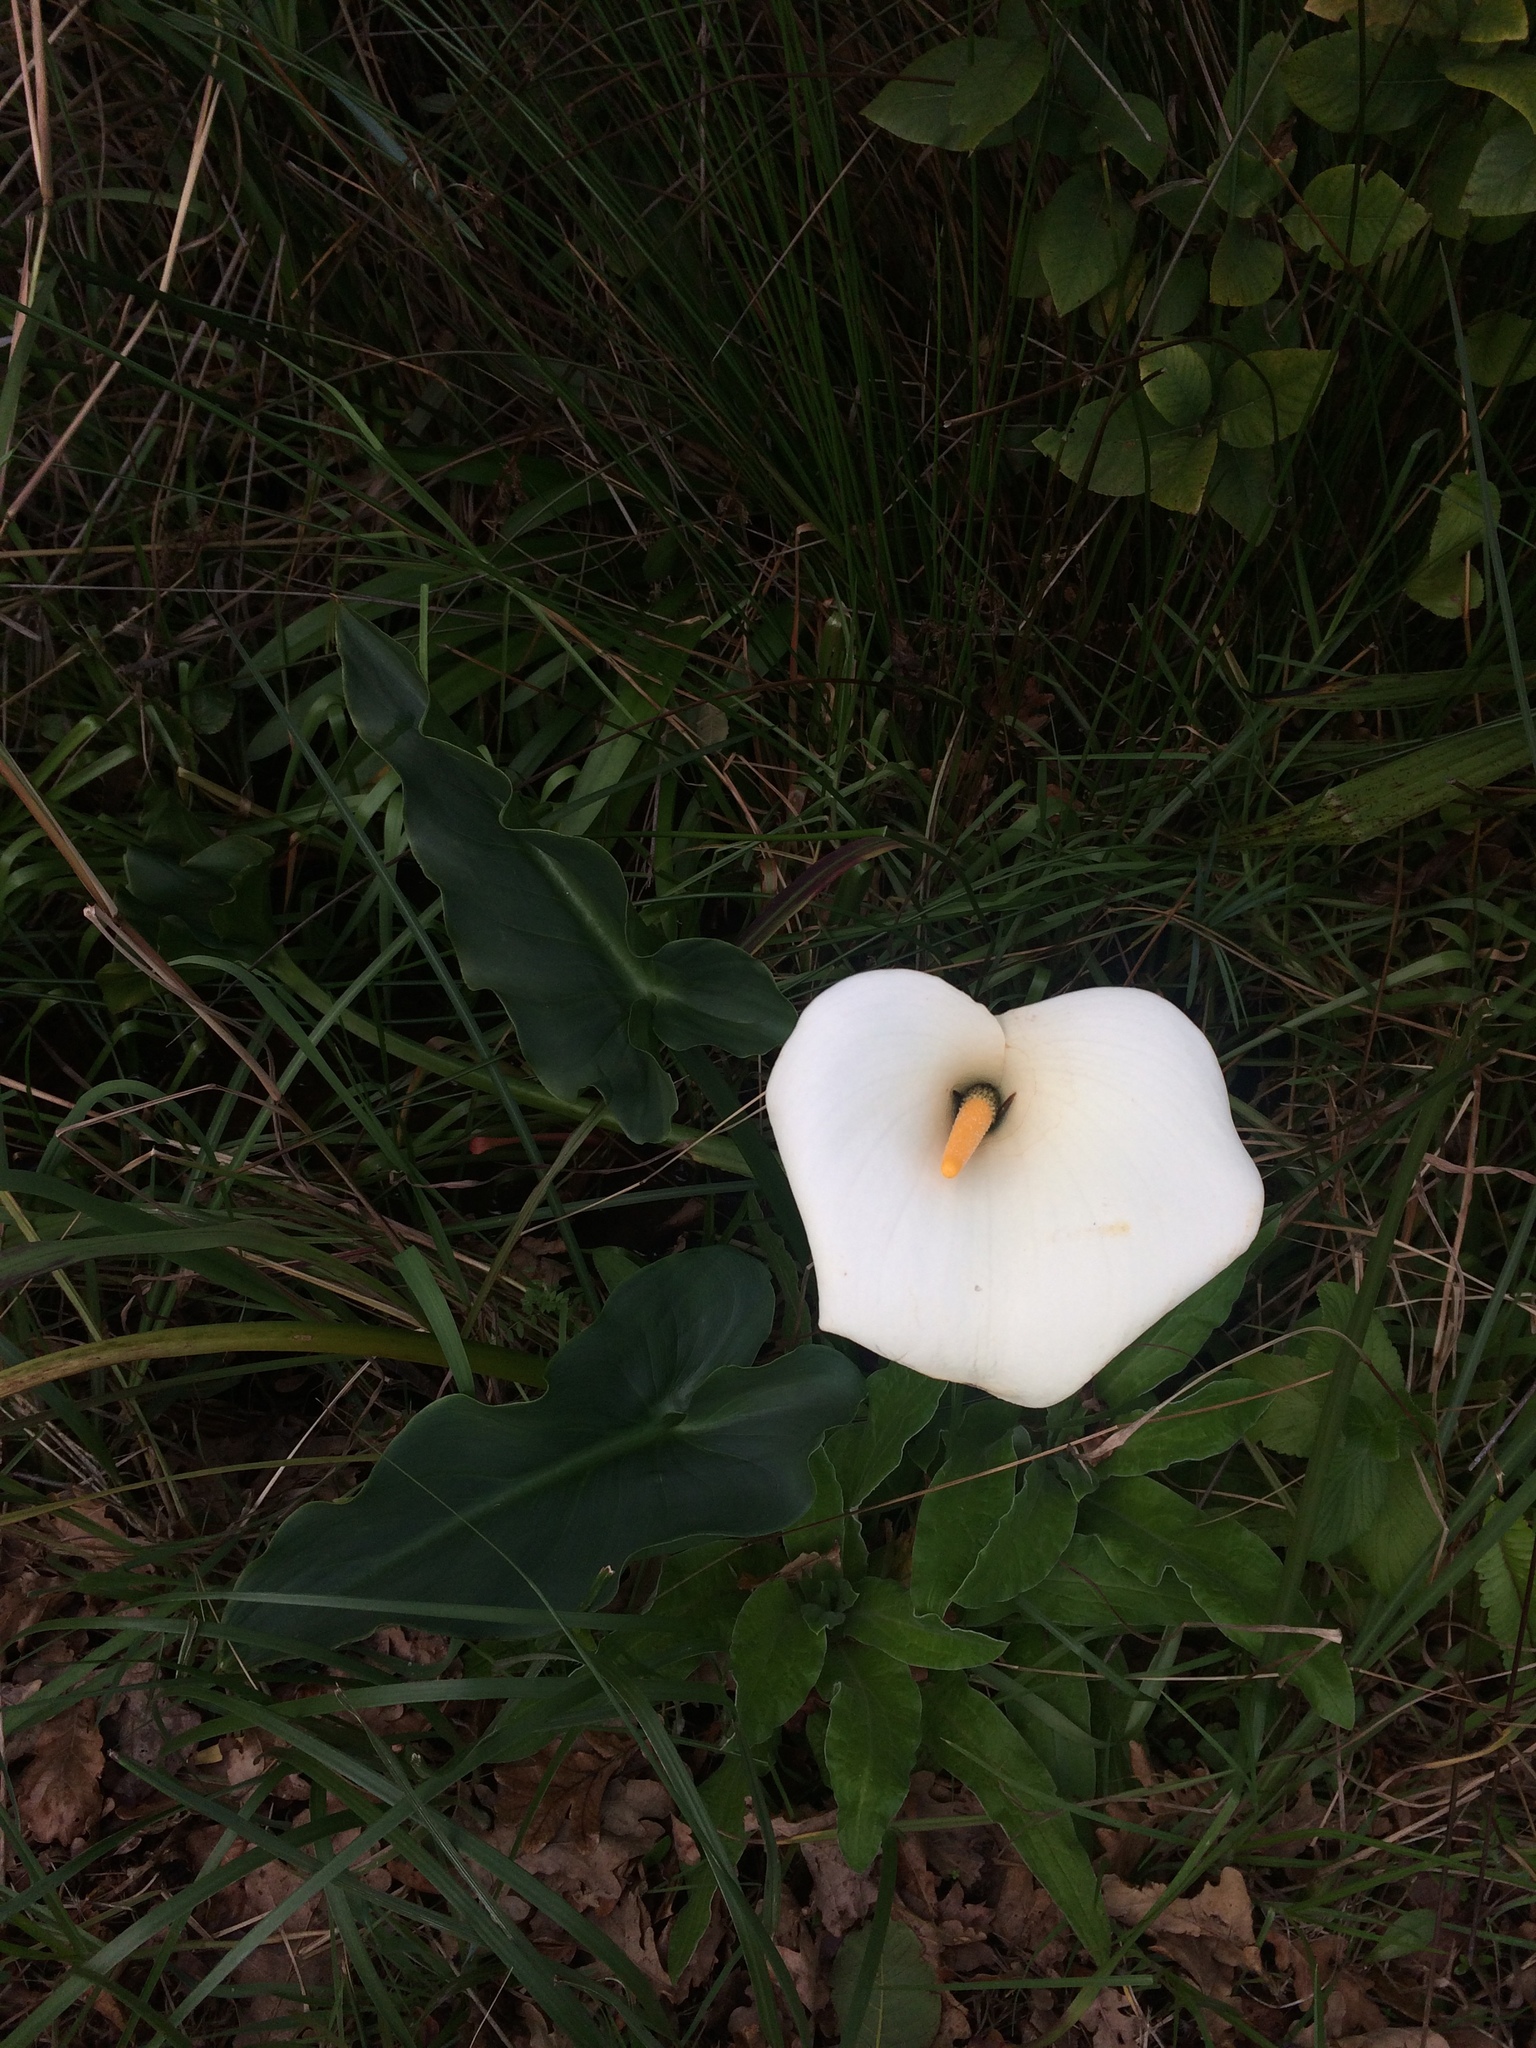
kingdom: Plantae
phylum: Tracheophyta
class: Liliopsida
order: Alismatales
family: Araceae
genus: Zantedeschia
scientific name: Zantedeschia aethiopica
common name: Altar-lily
